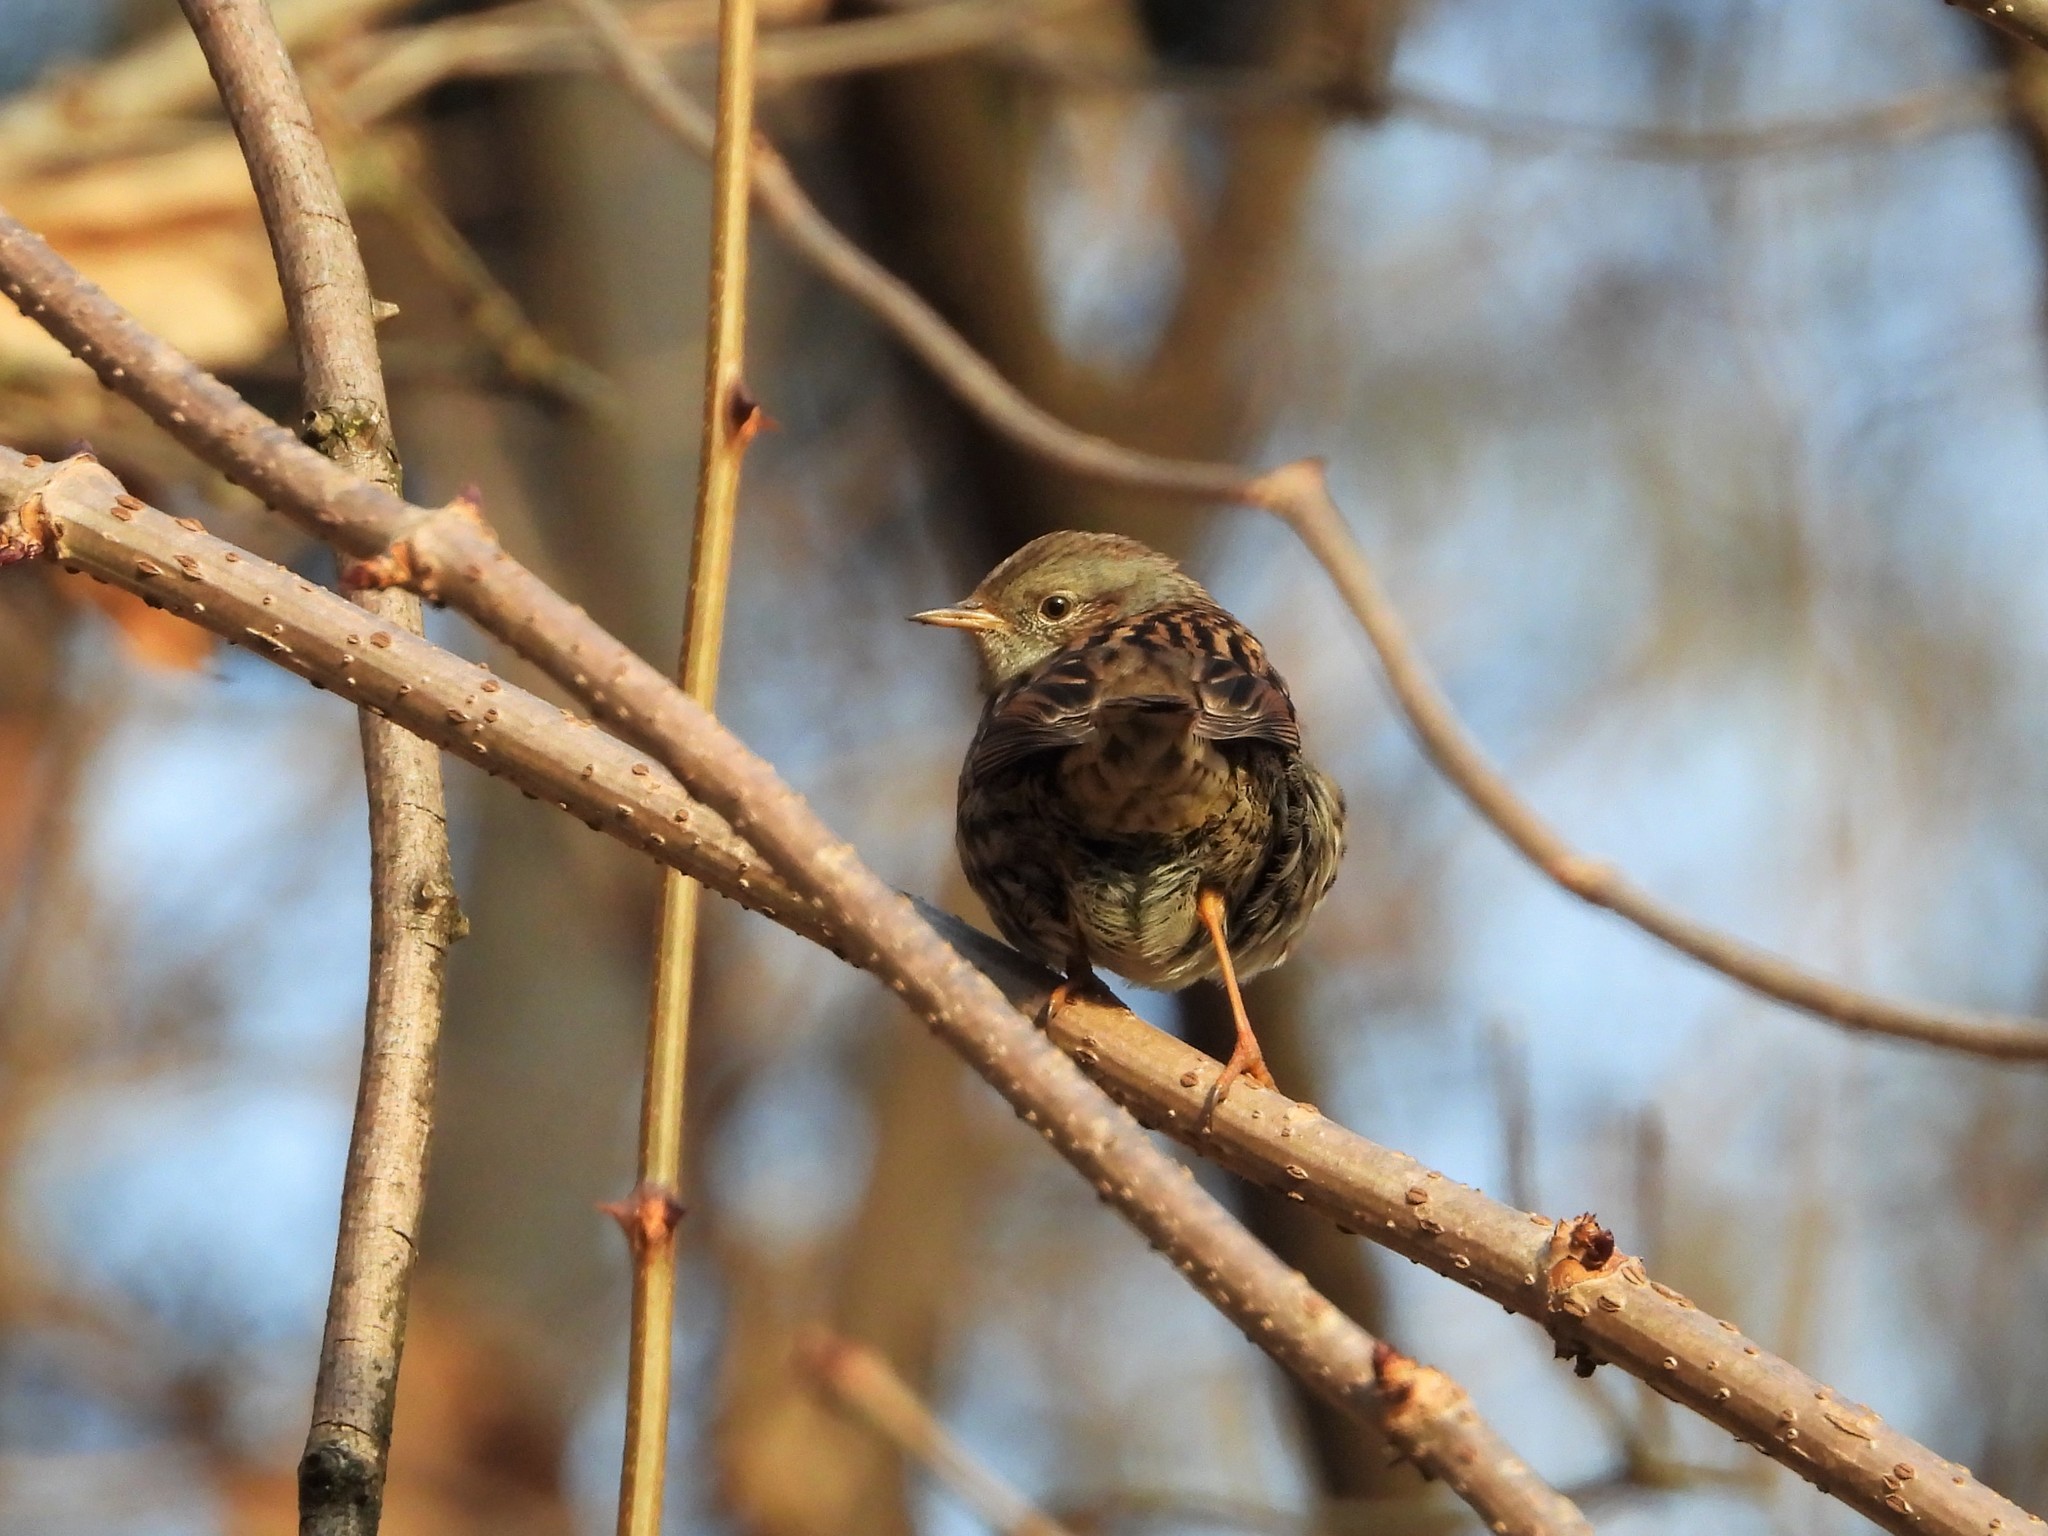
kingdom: Animalia
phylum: Chordata
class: Aves
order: Passeriformes
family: Prunellidae
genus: Prunella
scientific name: Prunella modularis
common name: Dunnock
